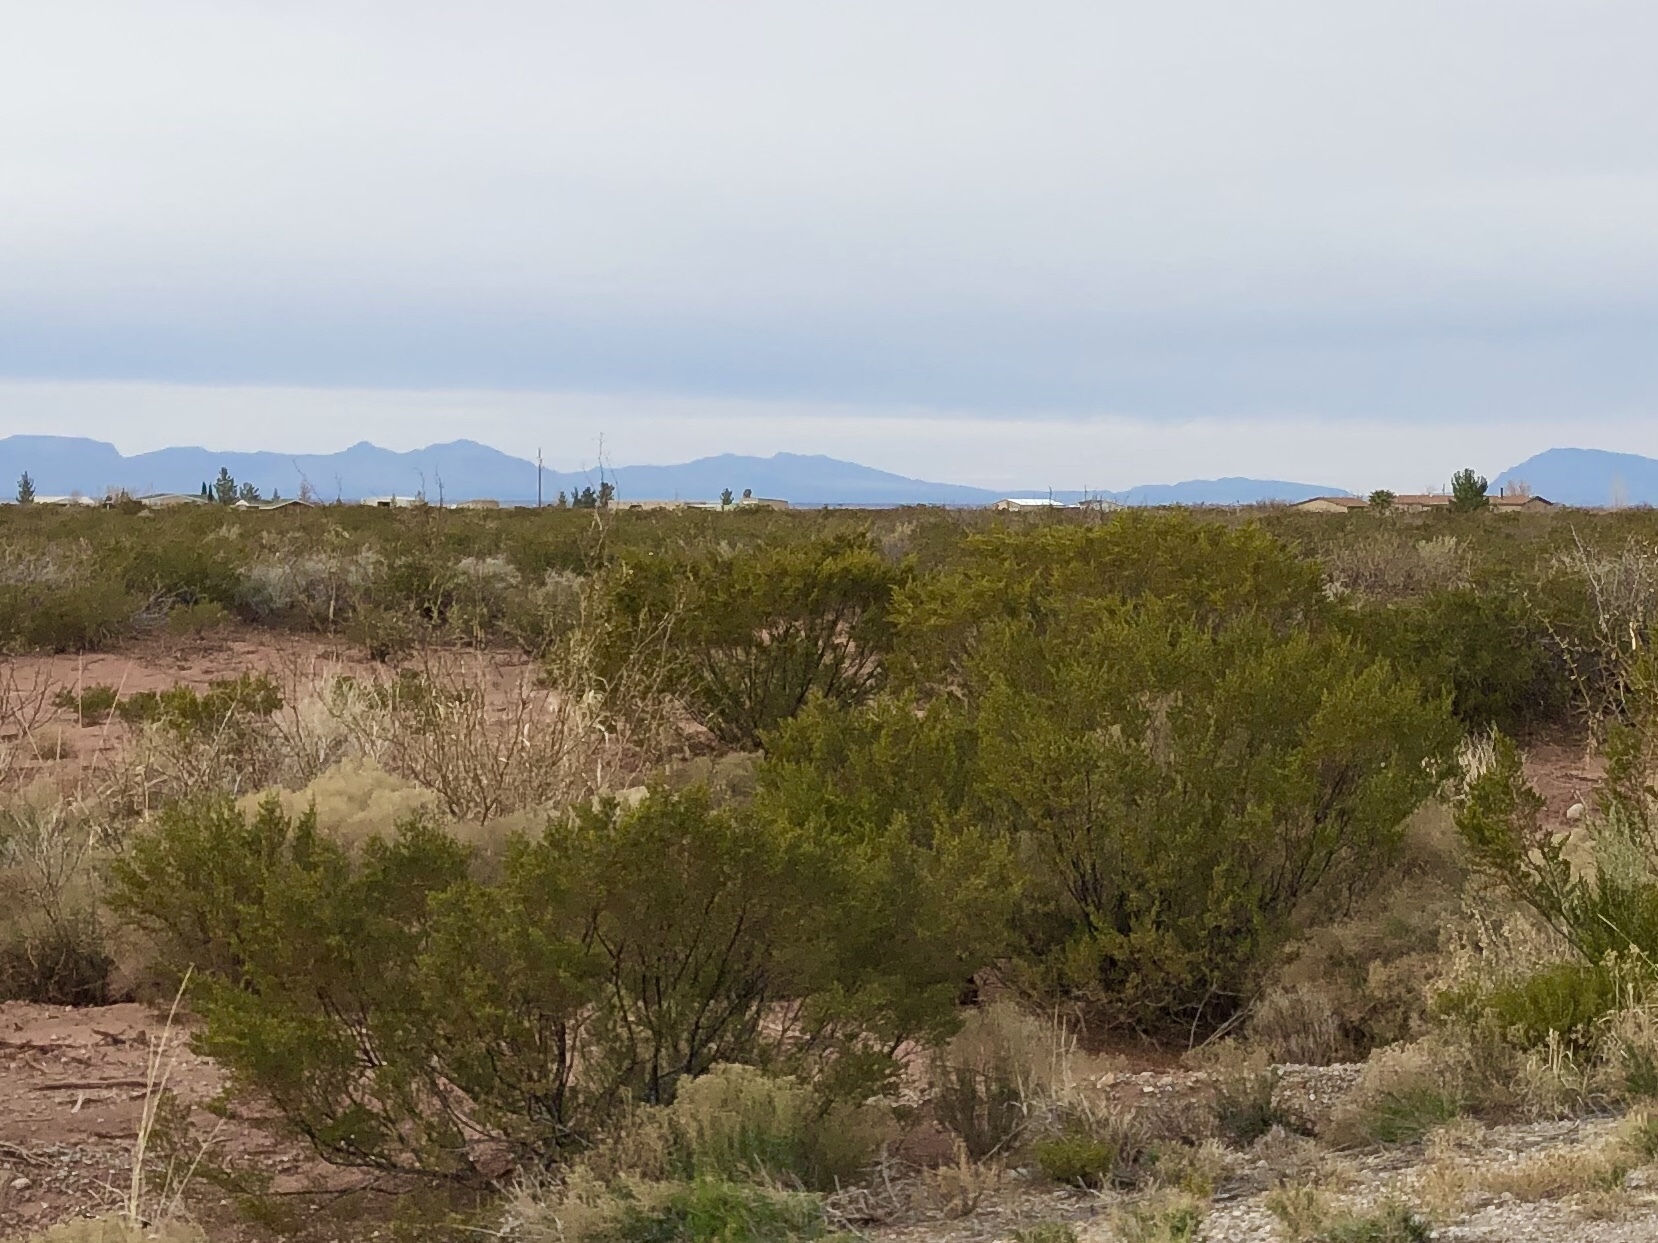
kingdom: Plantae
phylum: Tracheophyta
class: Magnoliopsida
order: Zygophyllales
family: Zygophyllaceae
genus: Larrea
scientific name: Larrea tridentata
